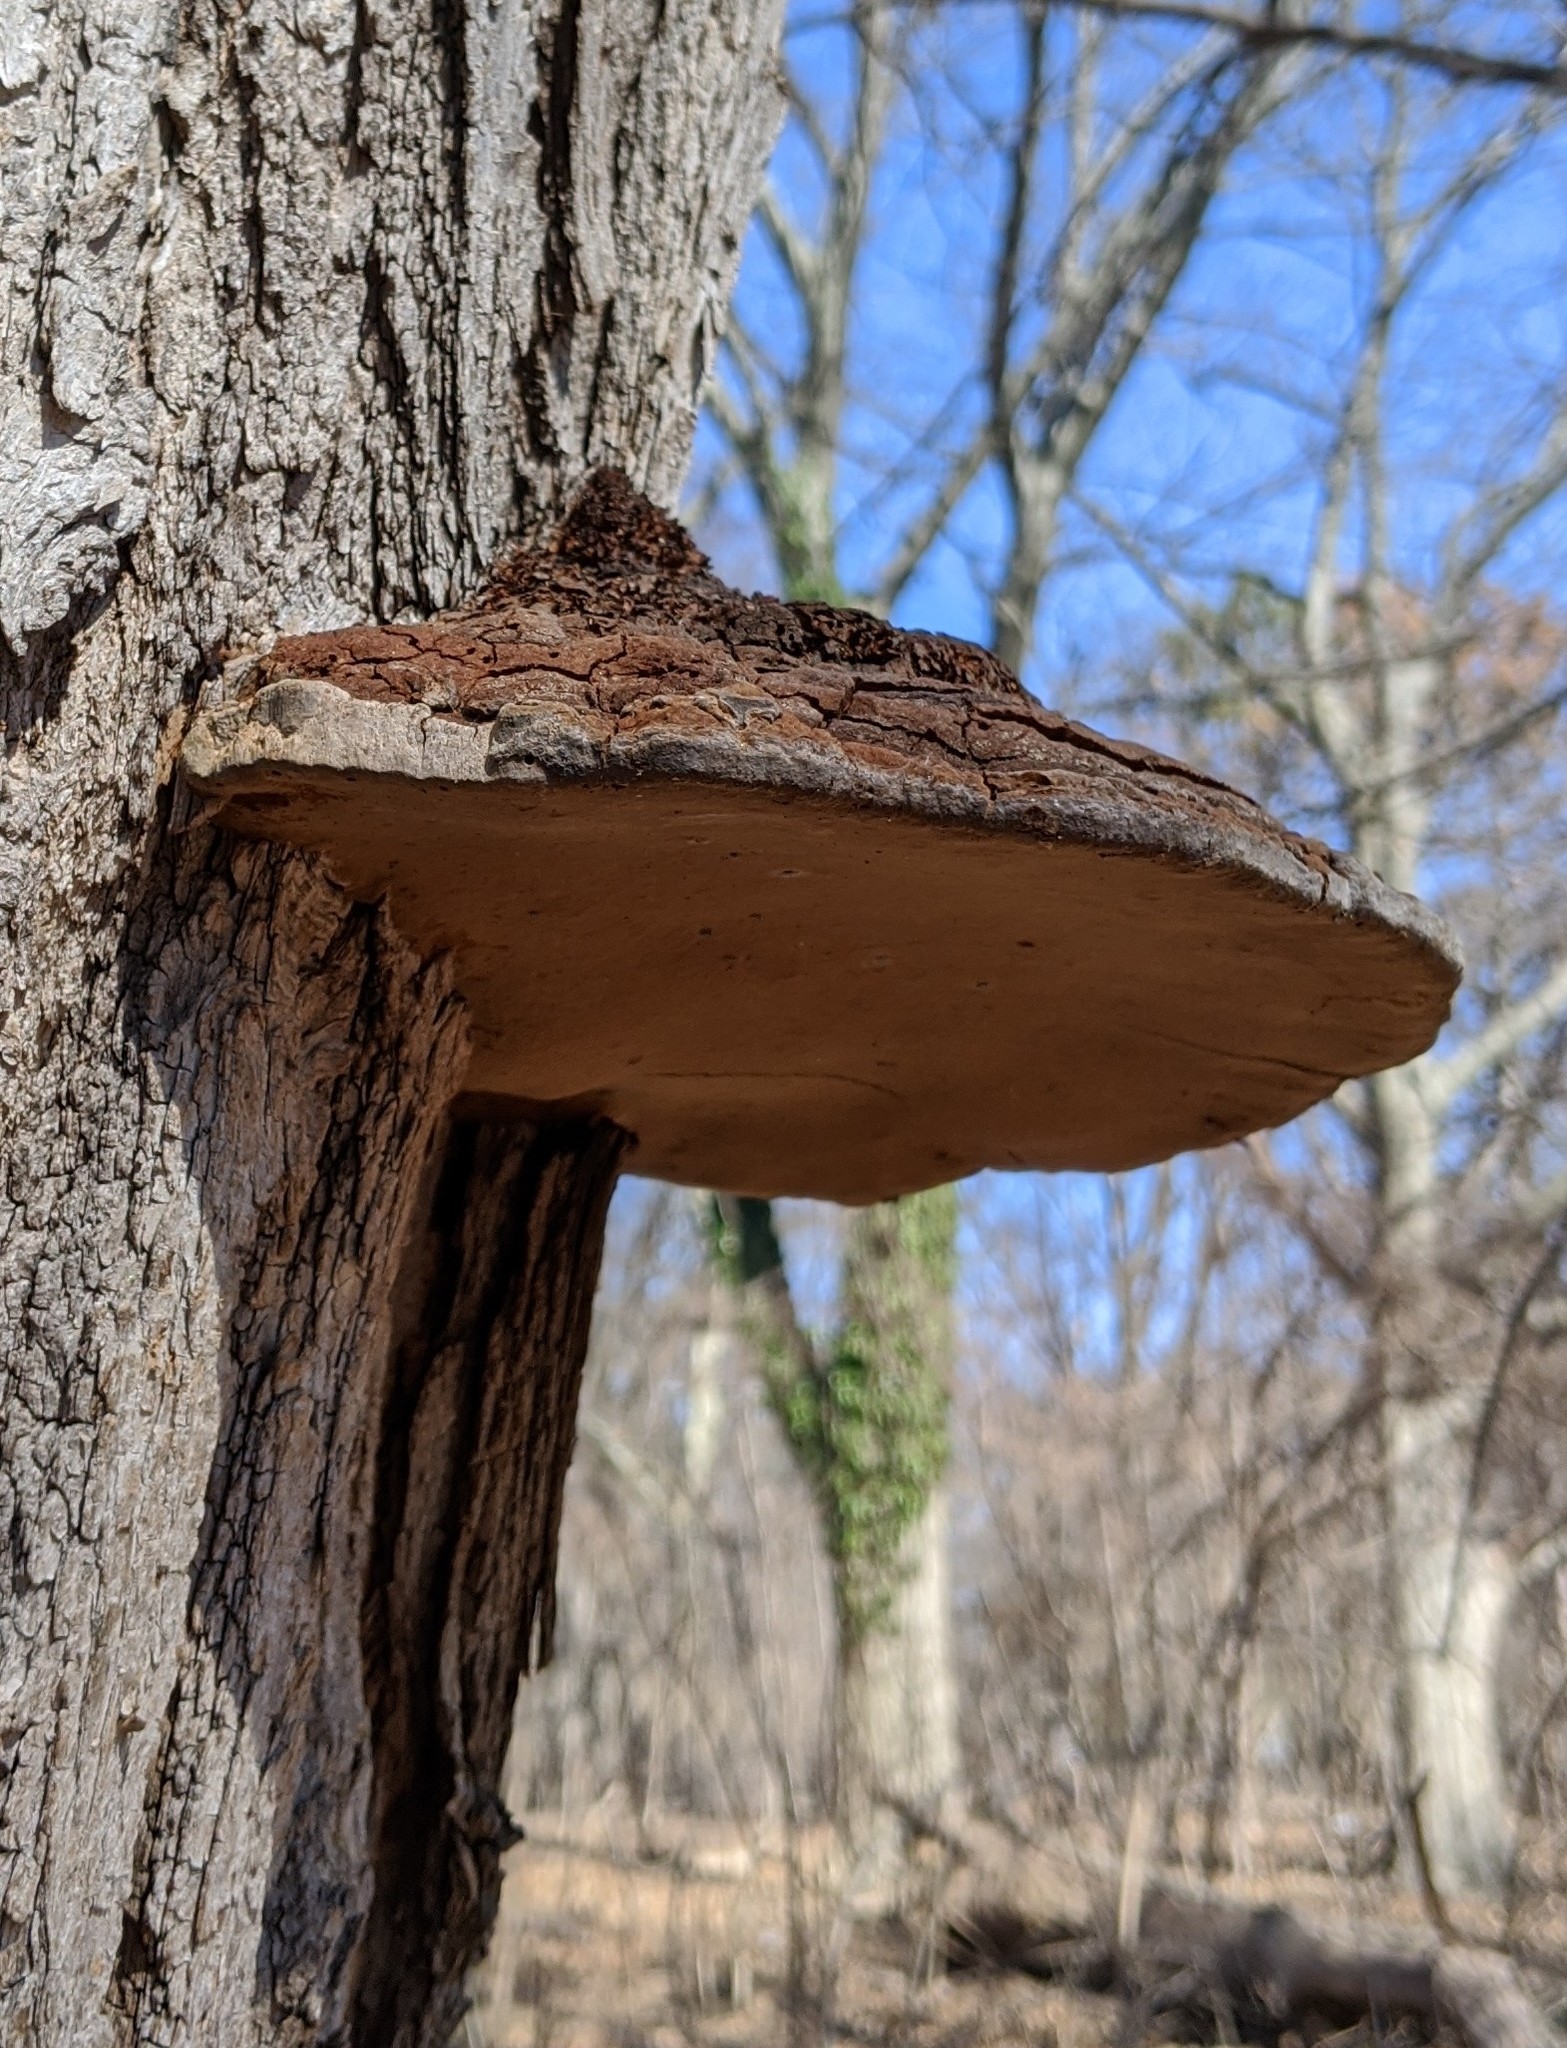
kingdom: Fungi
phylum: Basidiomycota
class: Agaricomycetes
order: Hymenochaetales
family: Hymenochaetaceae
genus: Phellinus
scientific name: Phellinus robiniae
